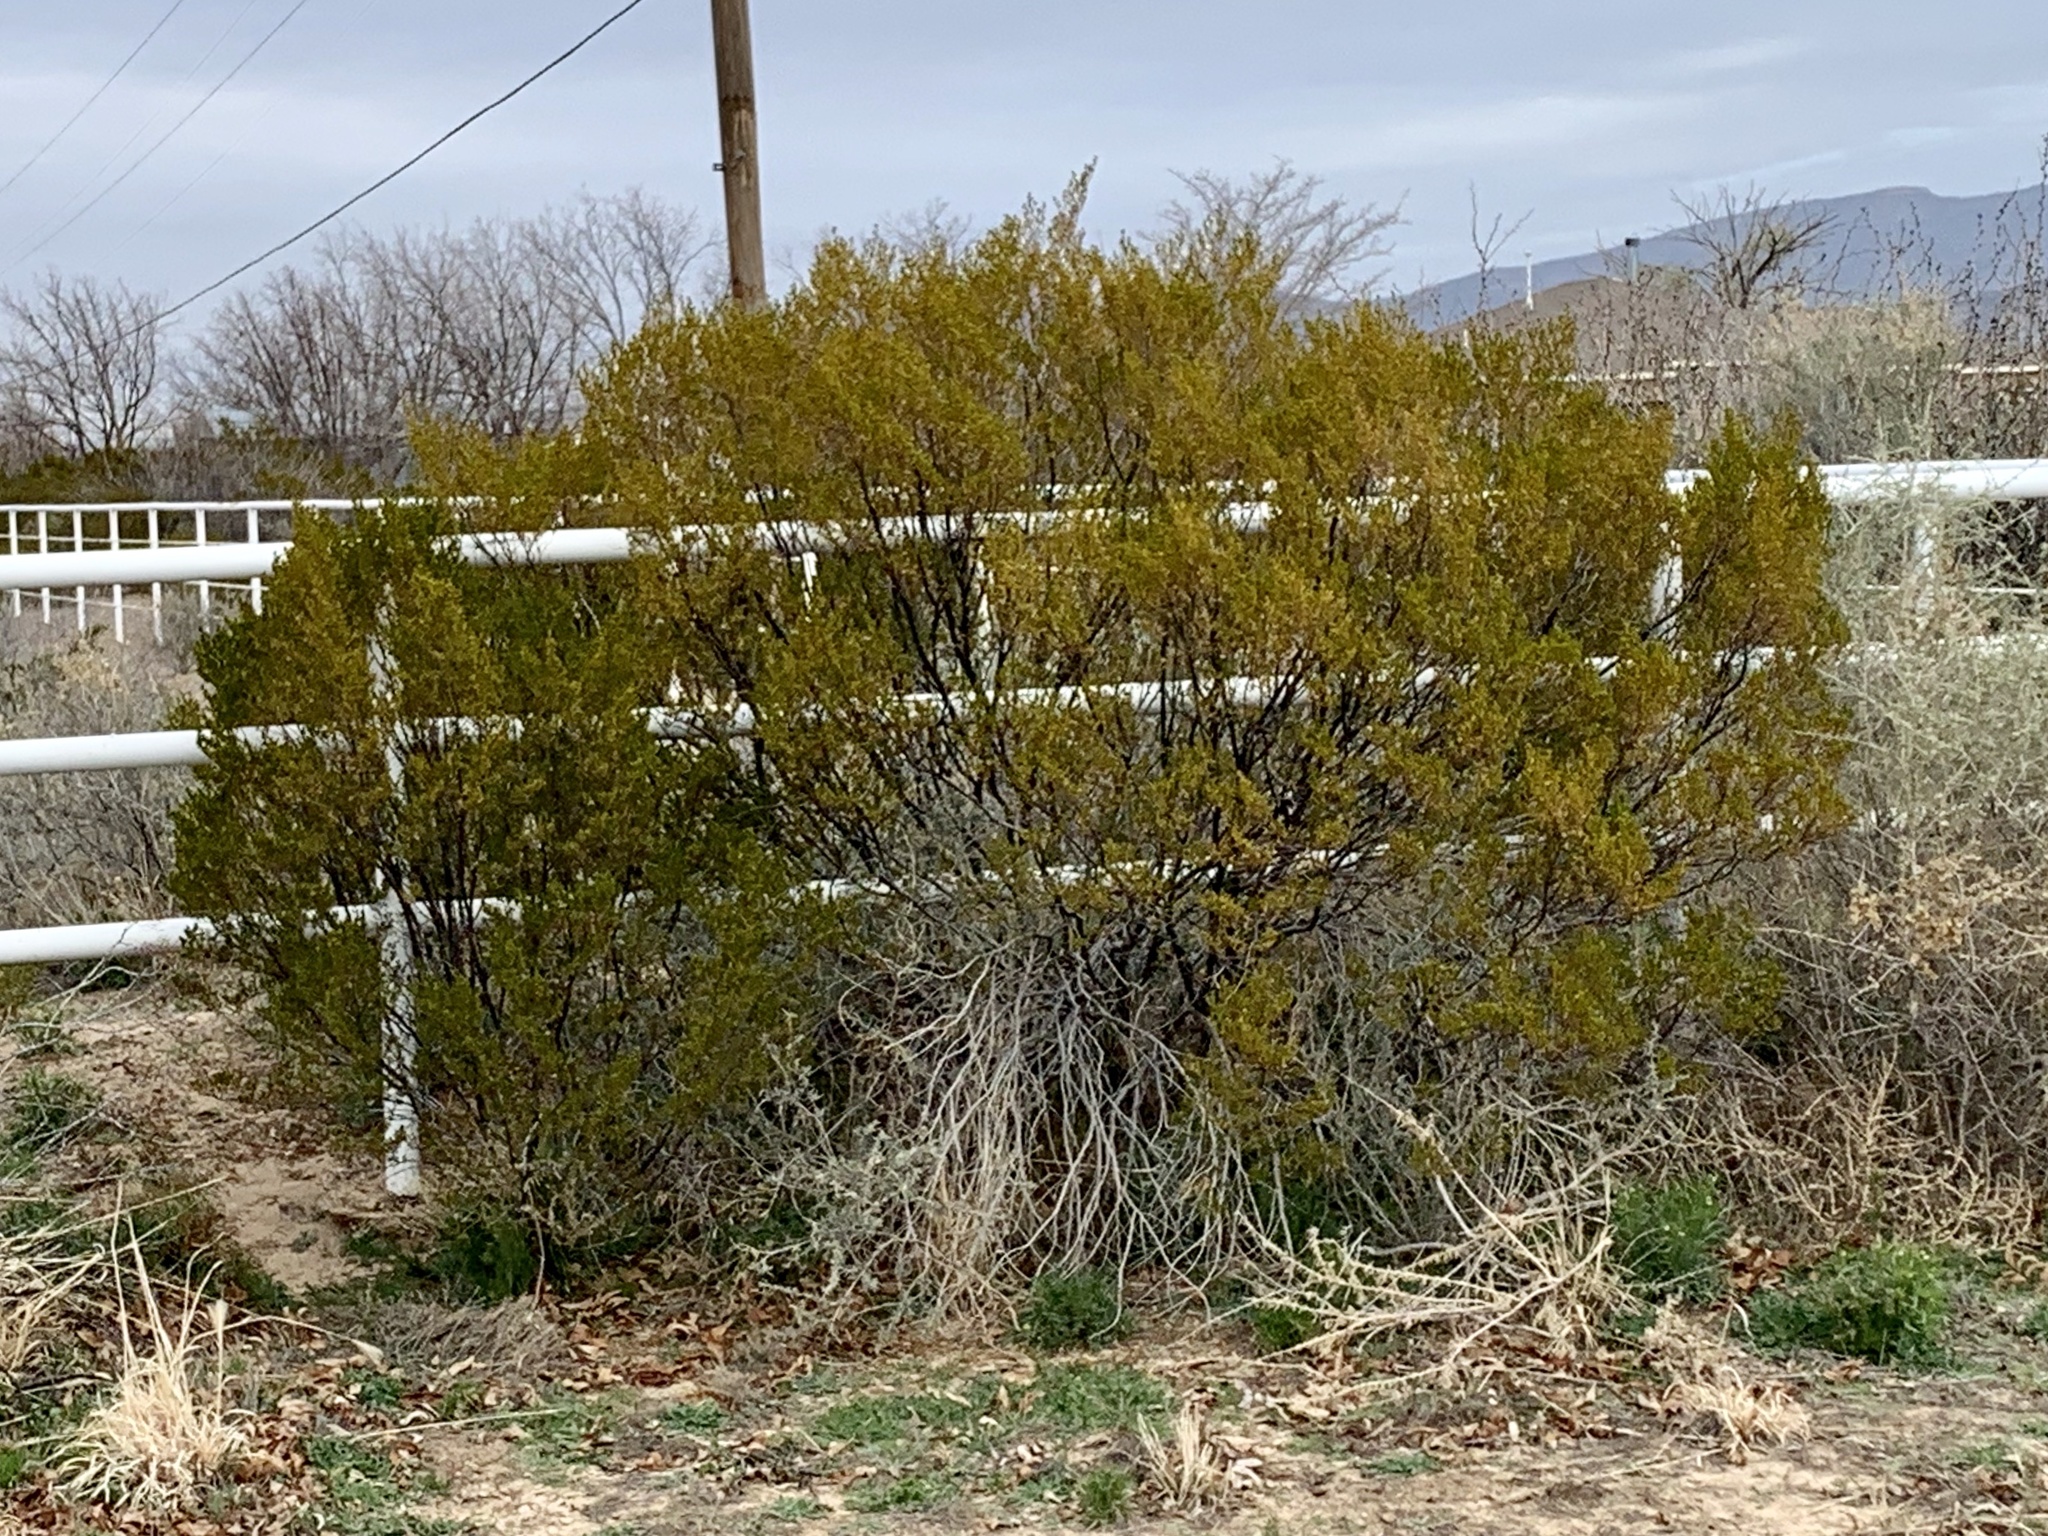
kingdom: Plantae
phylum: Tracheophyta
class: Magnoliopsida
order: Zygophyllales
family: Zygophyllaceae
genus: Larrea
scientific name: Larrea tridentata
